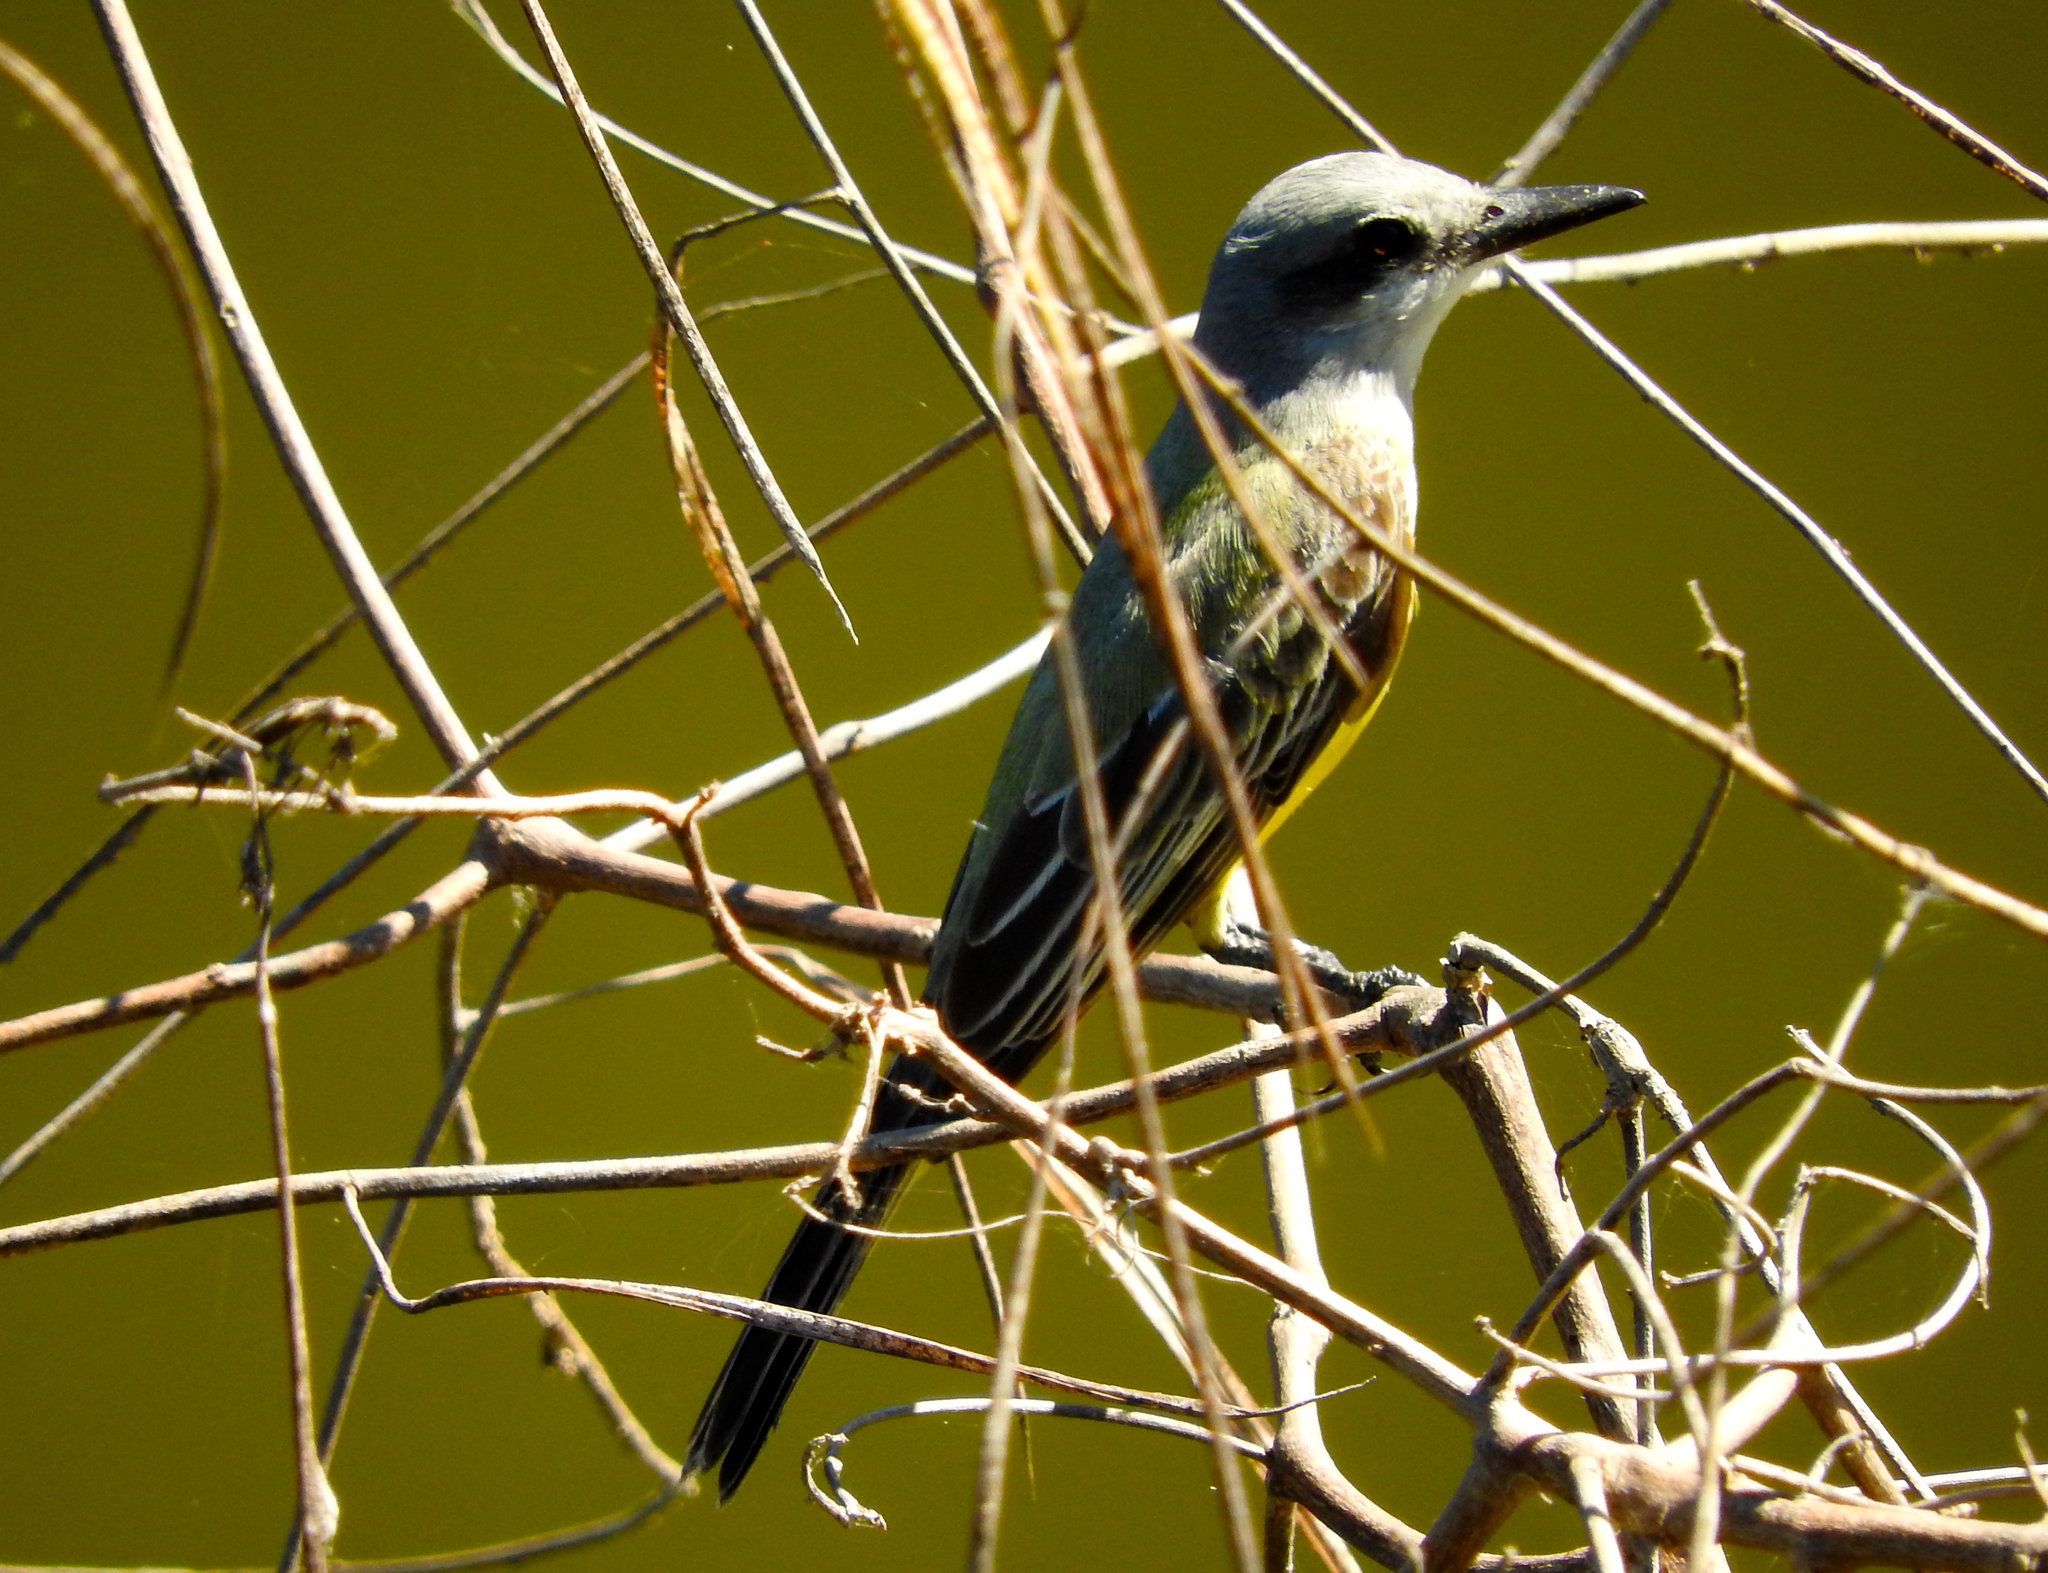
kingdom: Animalia
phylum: Chordata
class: Aves
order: Passeriformes
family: Tyrannidae
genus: Tyrannus
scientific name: Tyrannus melancholicus
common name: Tropical kingbird
